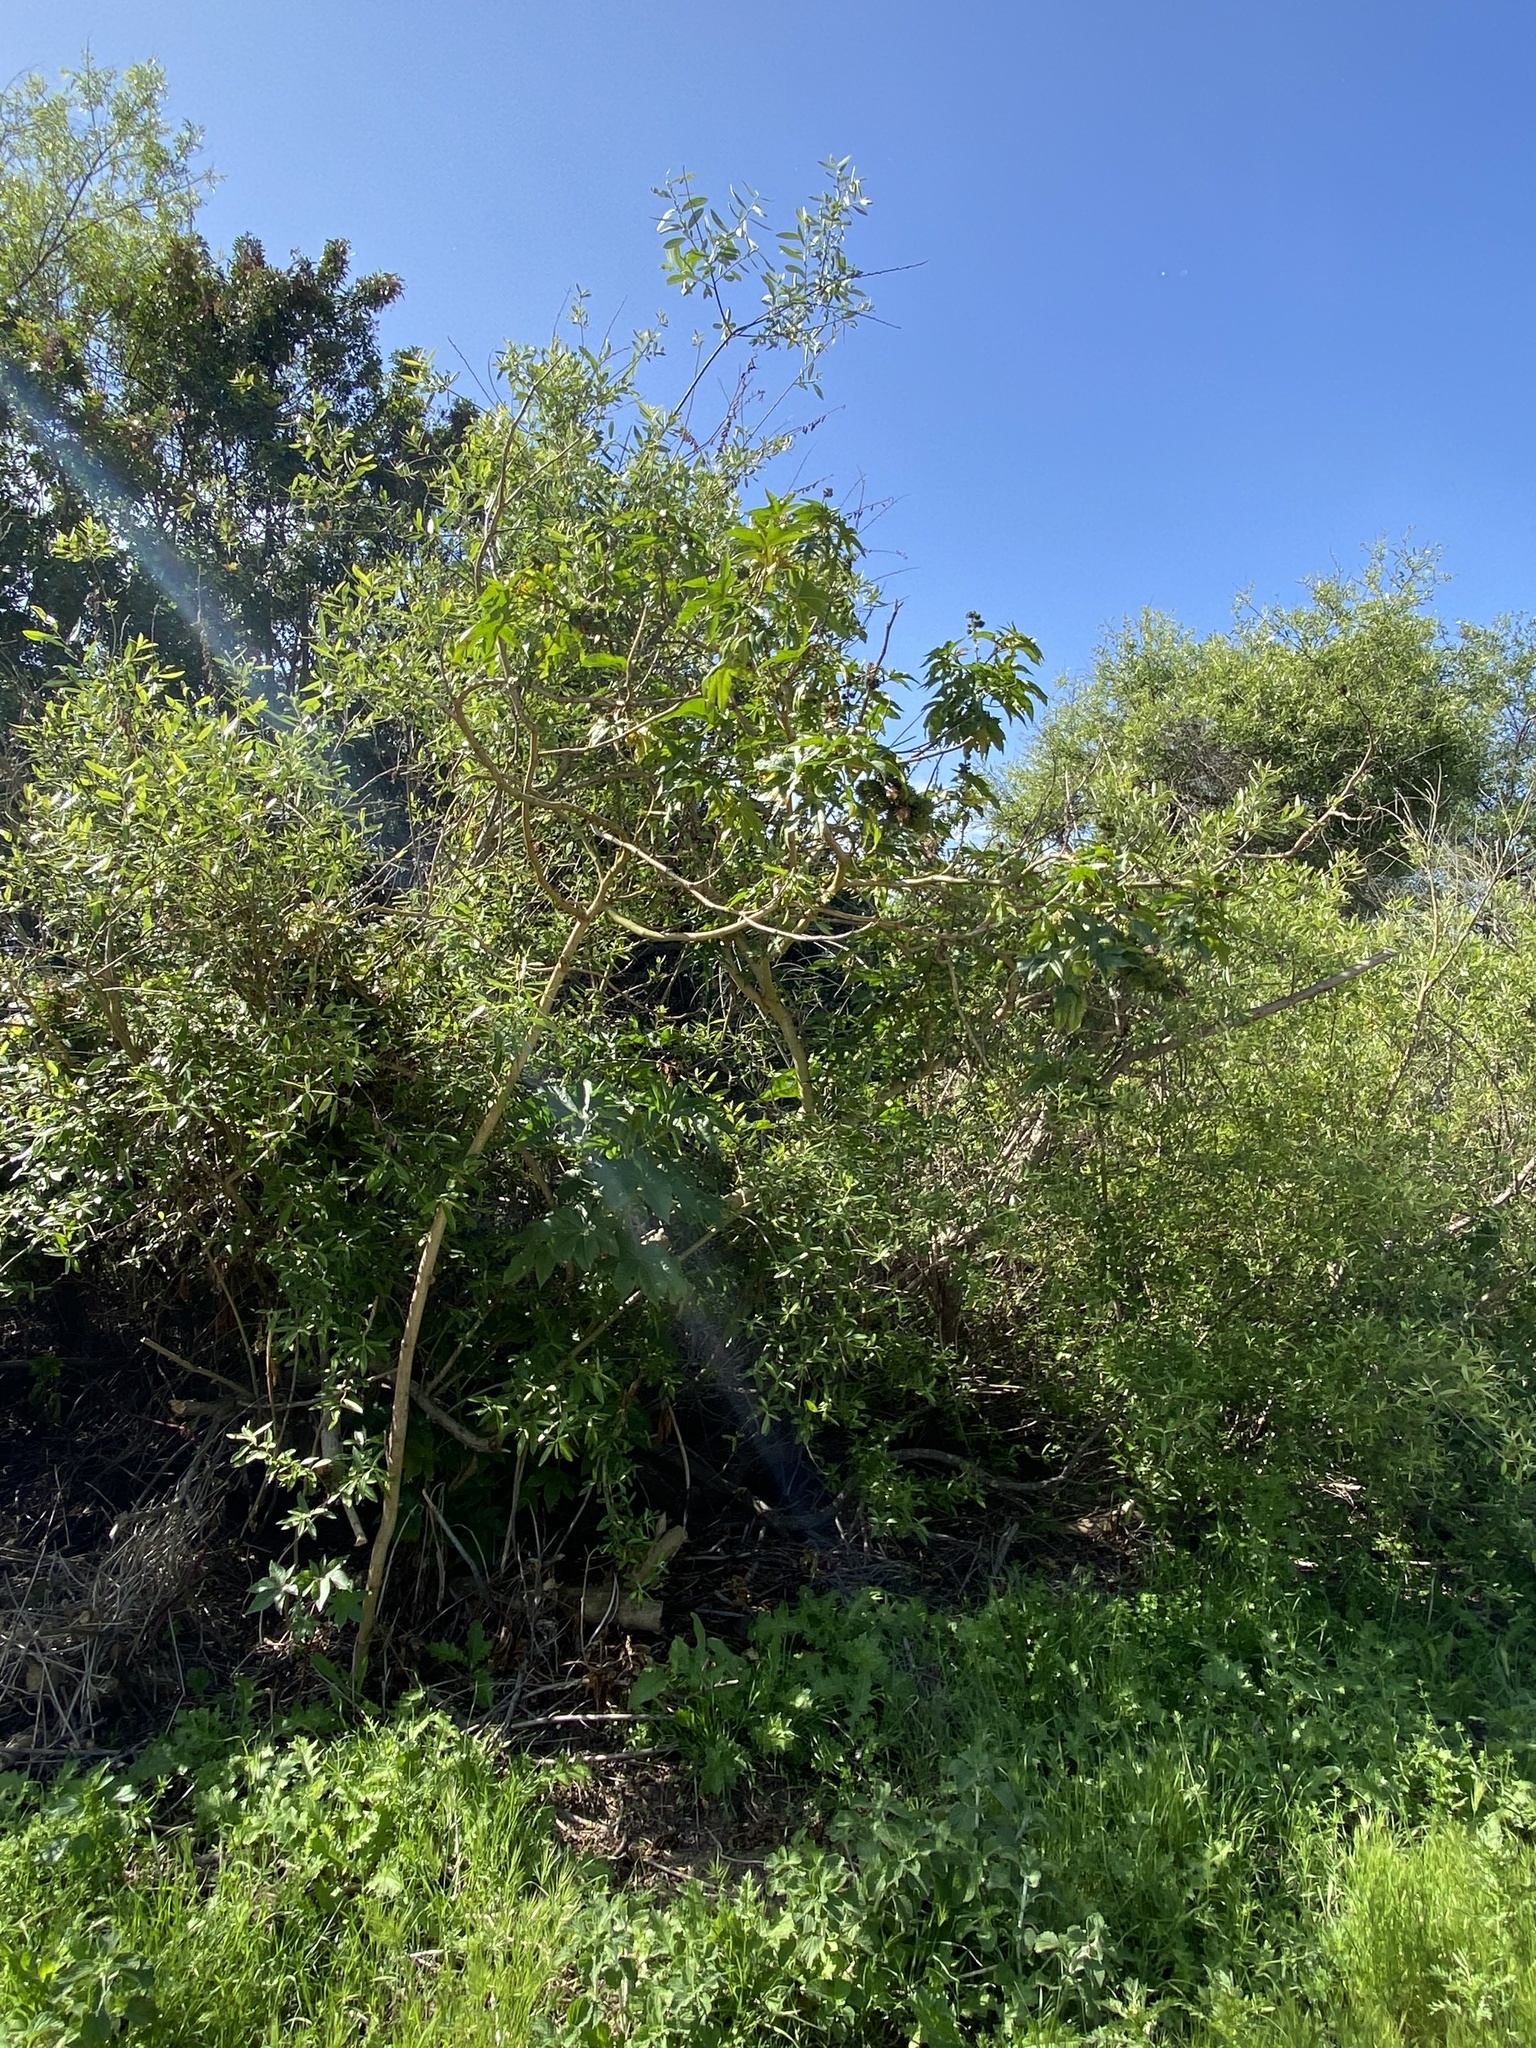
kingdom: Plantae
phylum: Tracheophyta
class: Magnoliopsida
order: Malpighiales
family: Euphorbiaceae
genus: Ricinus
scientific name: Ricinus communis
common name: Castor-oil-plant
